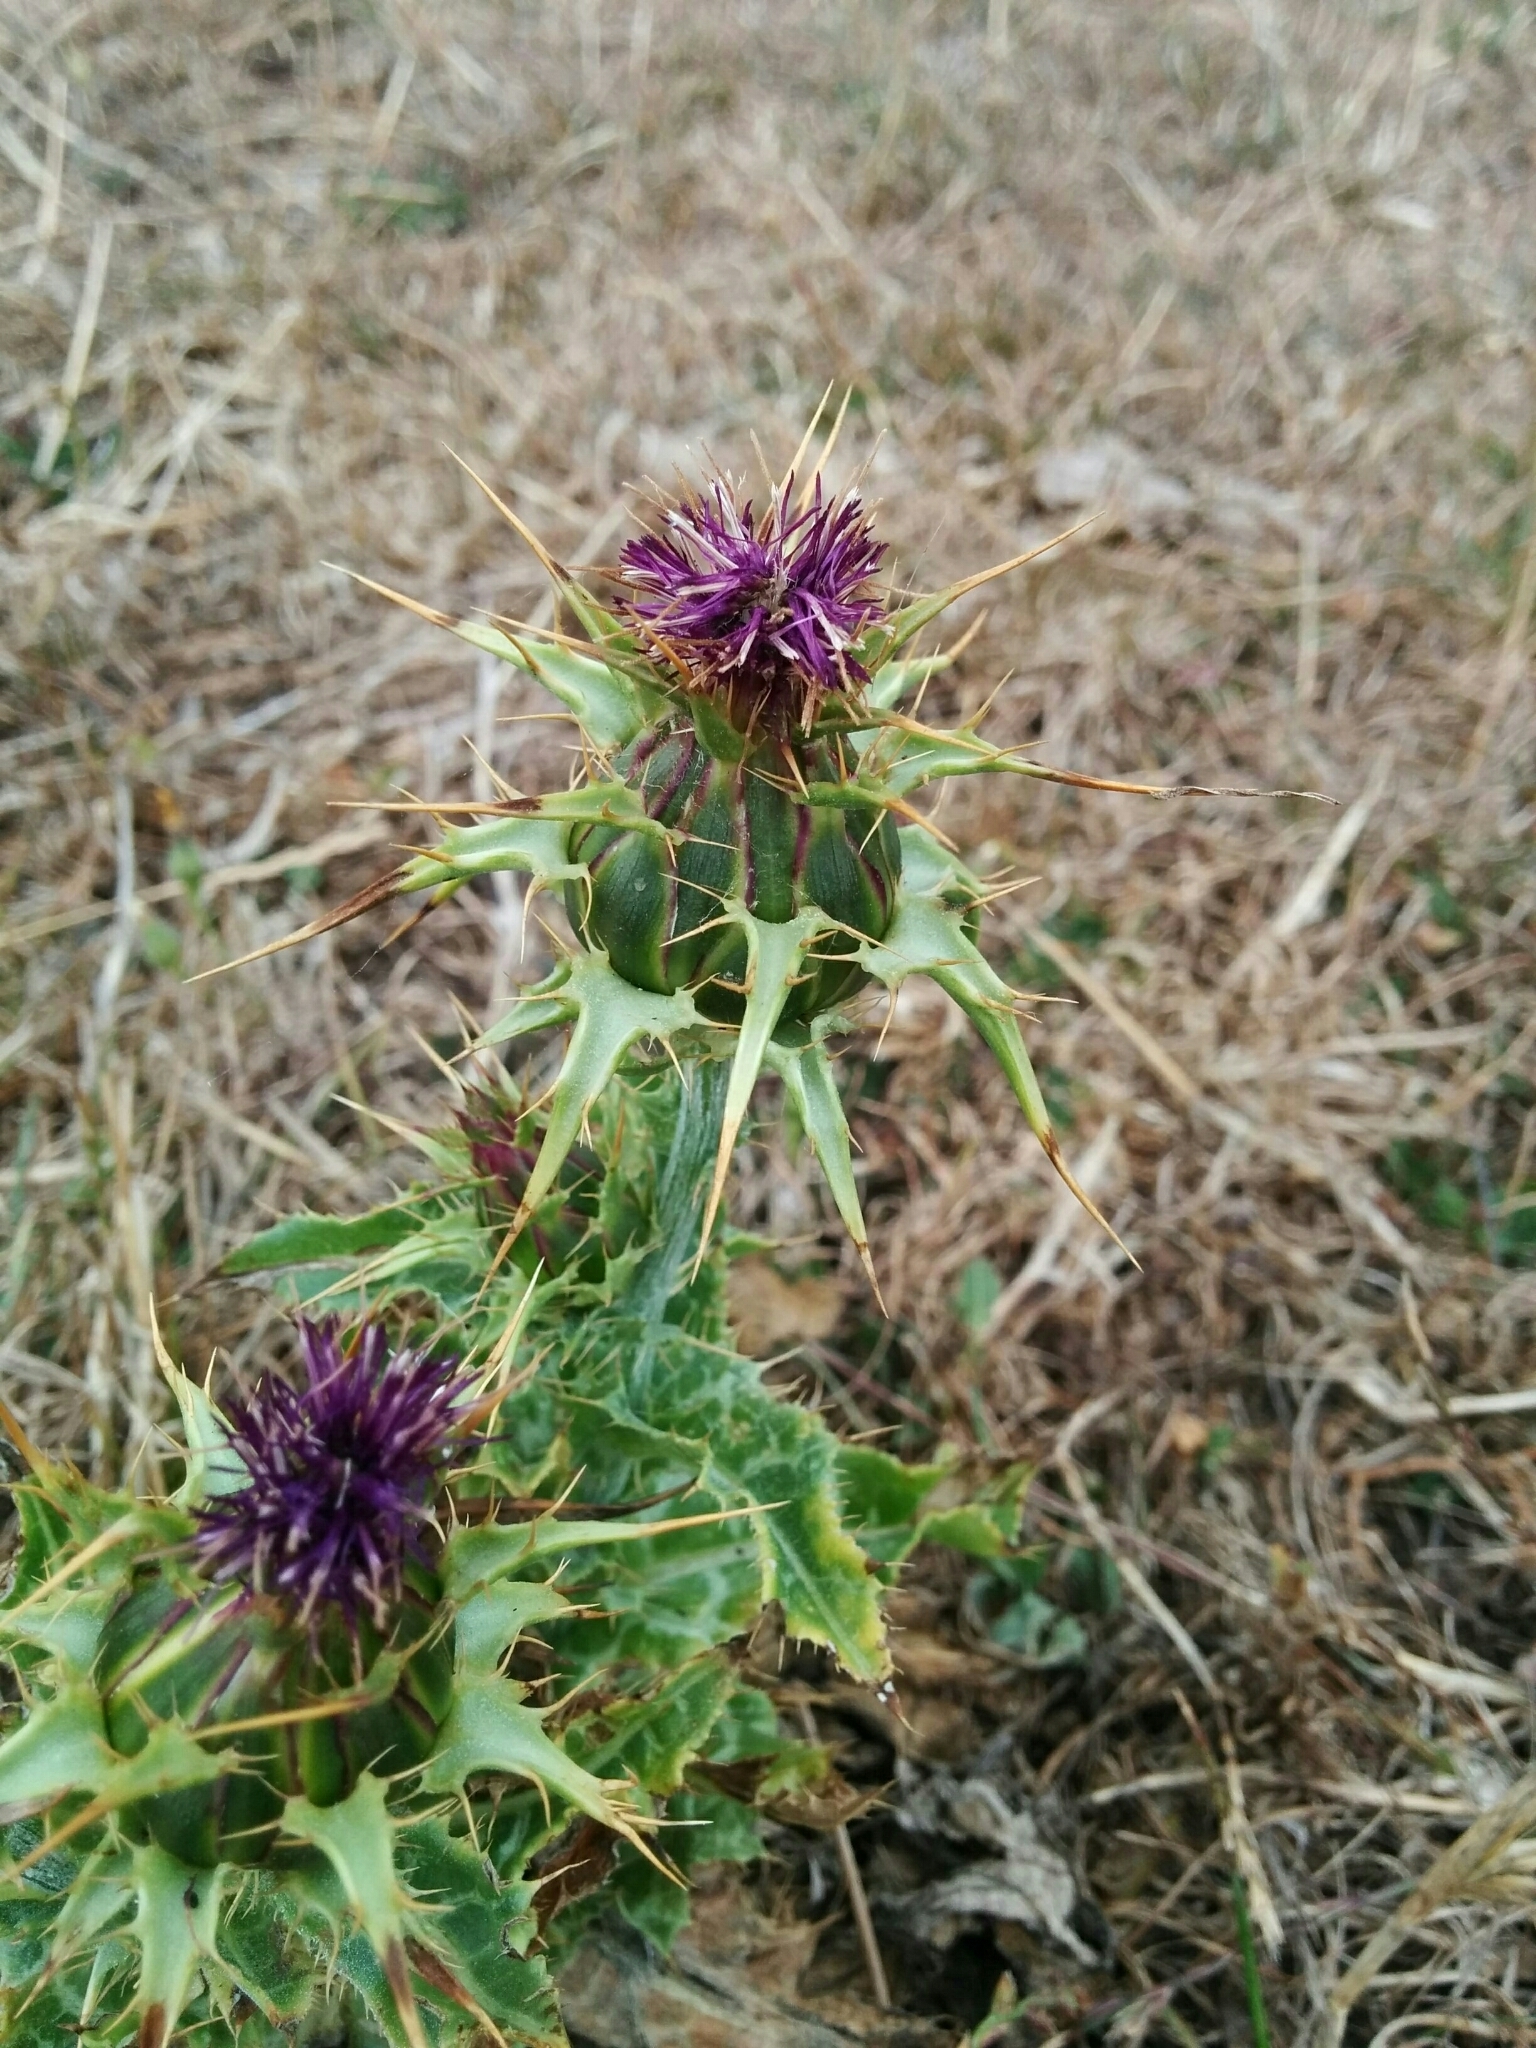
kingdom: Plantae
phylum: Tracheophyta
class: Magnoliopsida
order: Asterales
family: Asteraceae
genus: Silybum
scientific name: Silybum marianum
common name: Milk thistle
